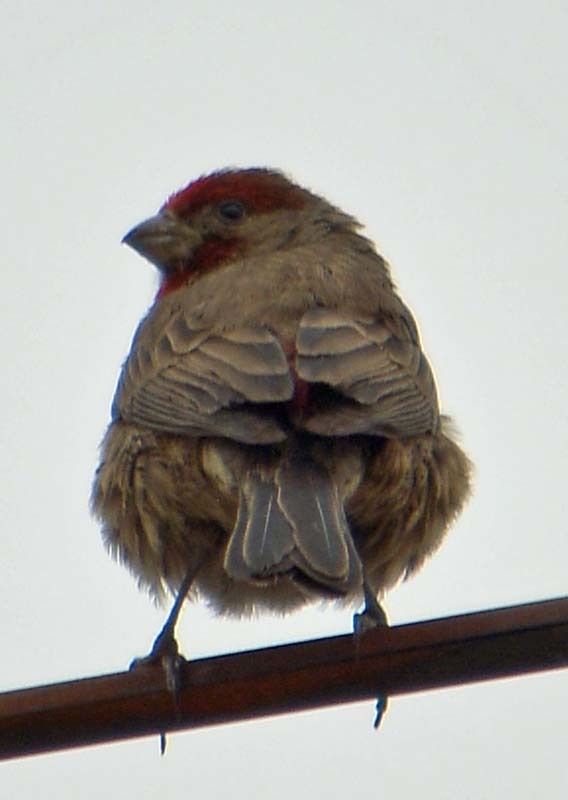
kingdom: Animalia
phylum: Chordata
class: Aves
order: Passeriformes
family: Fringillidae
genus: Haemorhous
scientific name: Haemorhous mexicanus
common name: House finch
